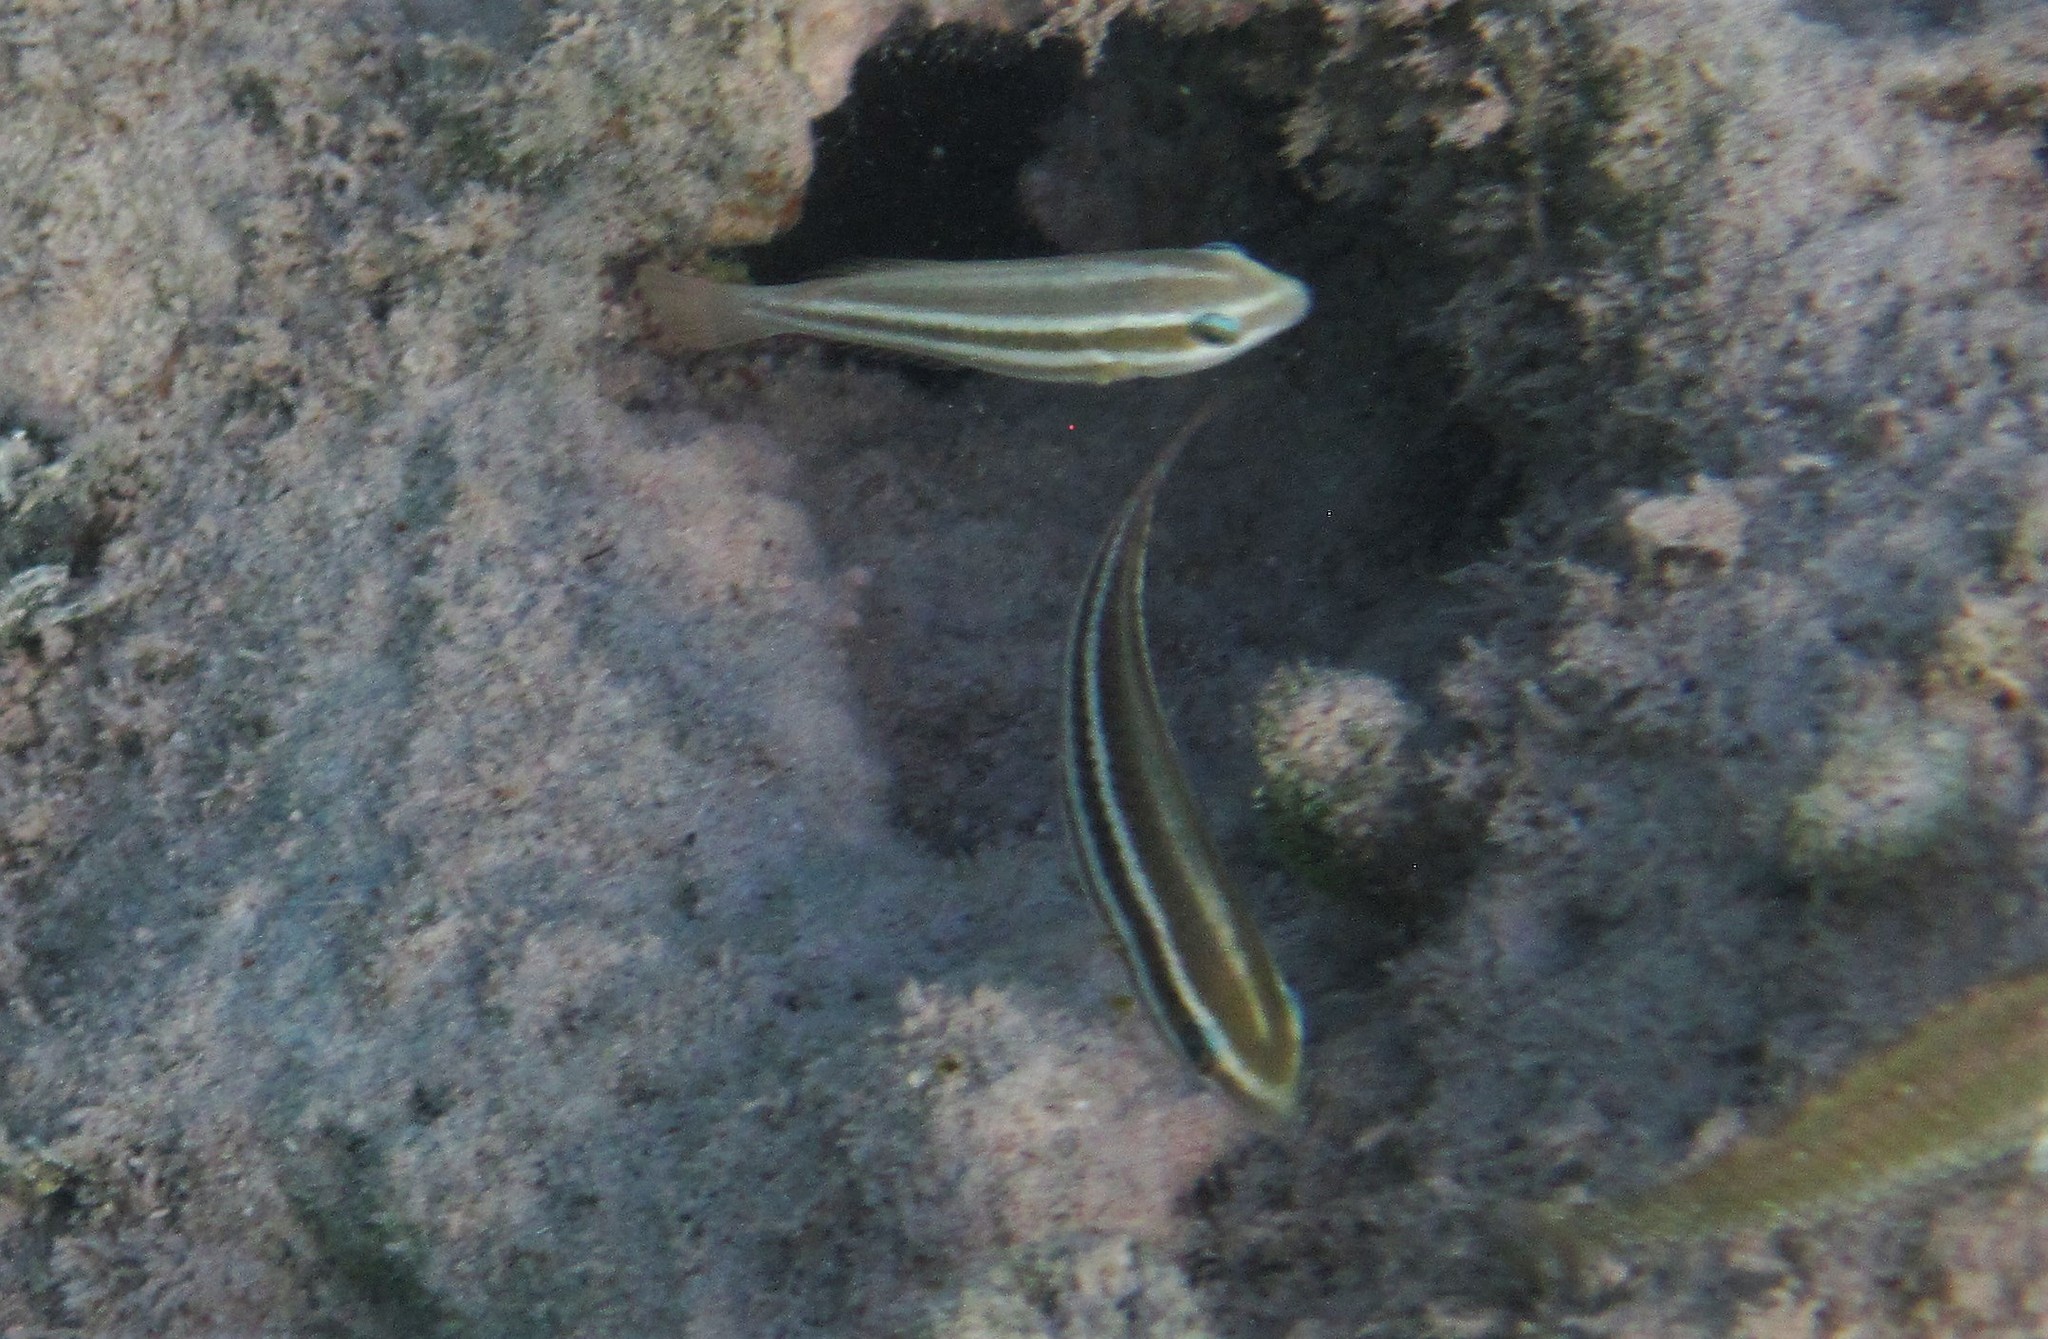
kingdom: Animalia
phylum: Chordata
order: Perciformes
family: Scaridae
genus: Scarus
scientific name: Scarus iseri
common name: Striped parrotfish
